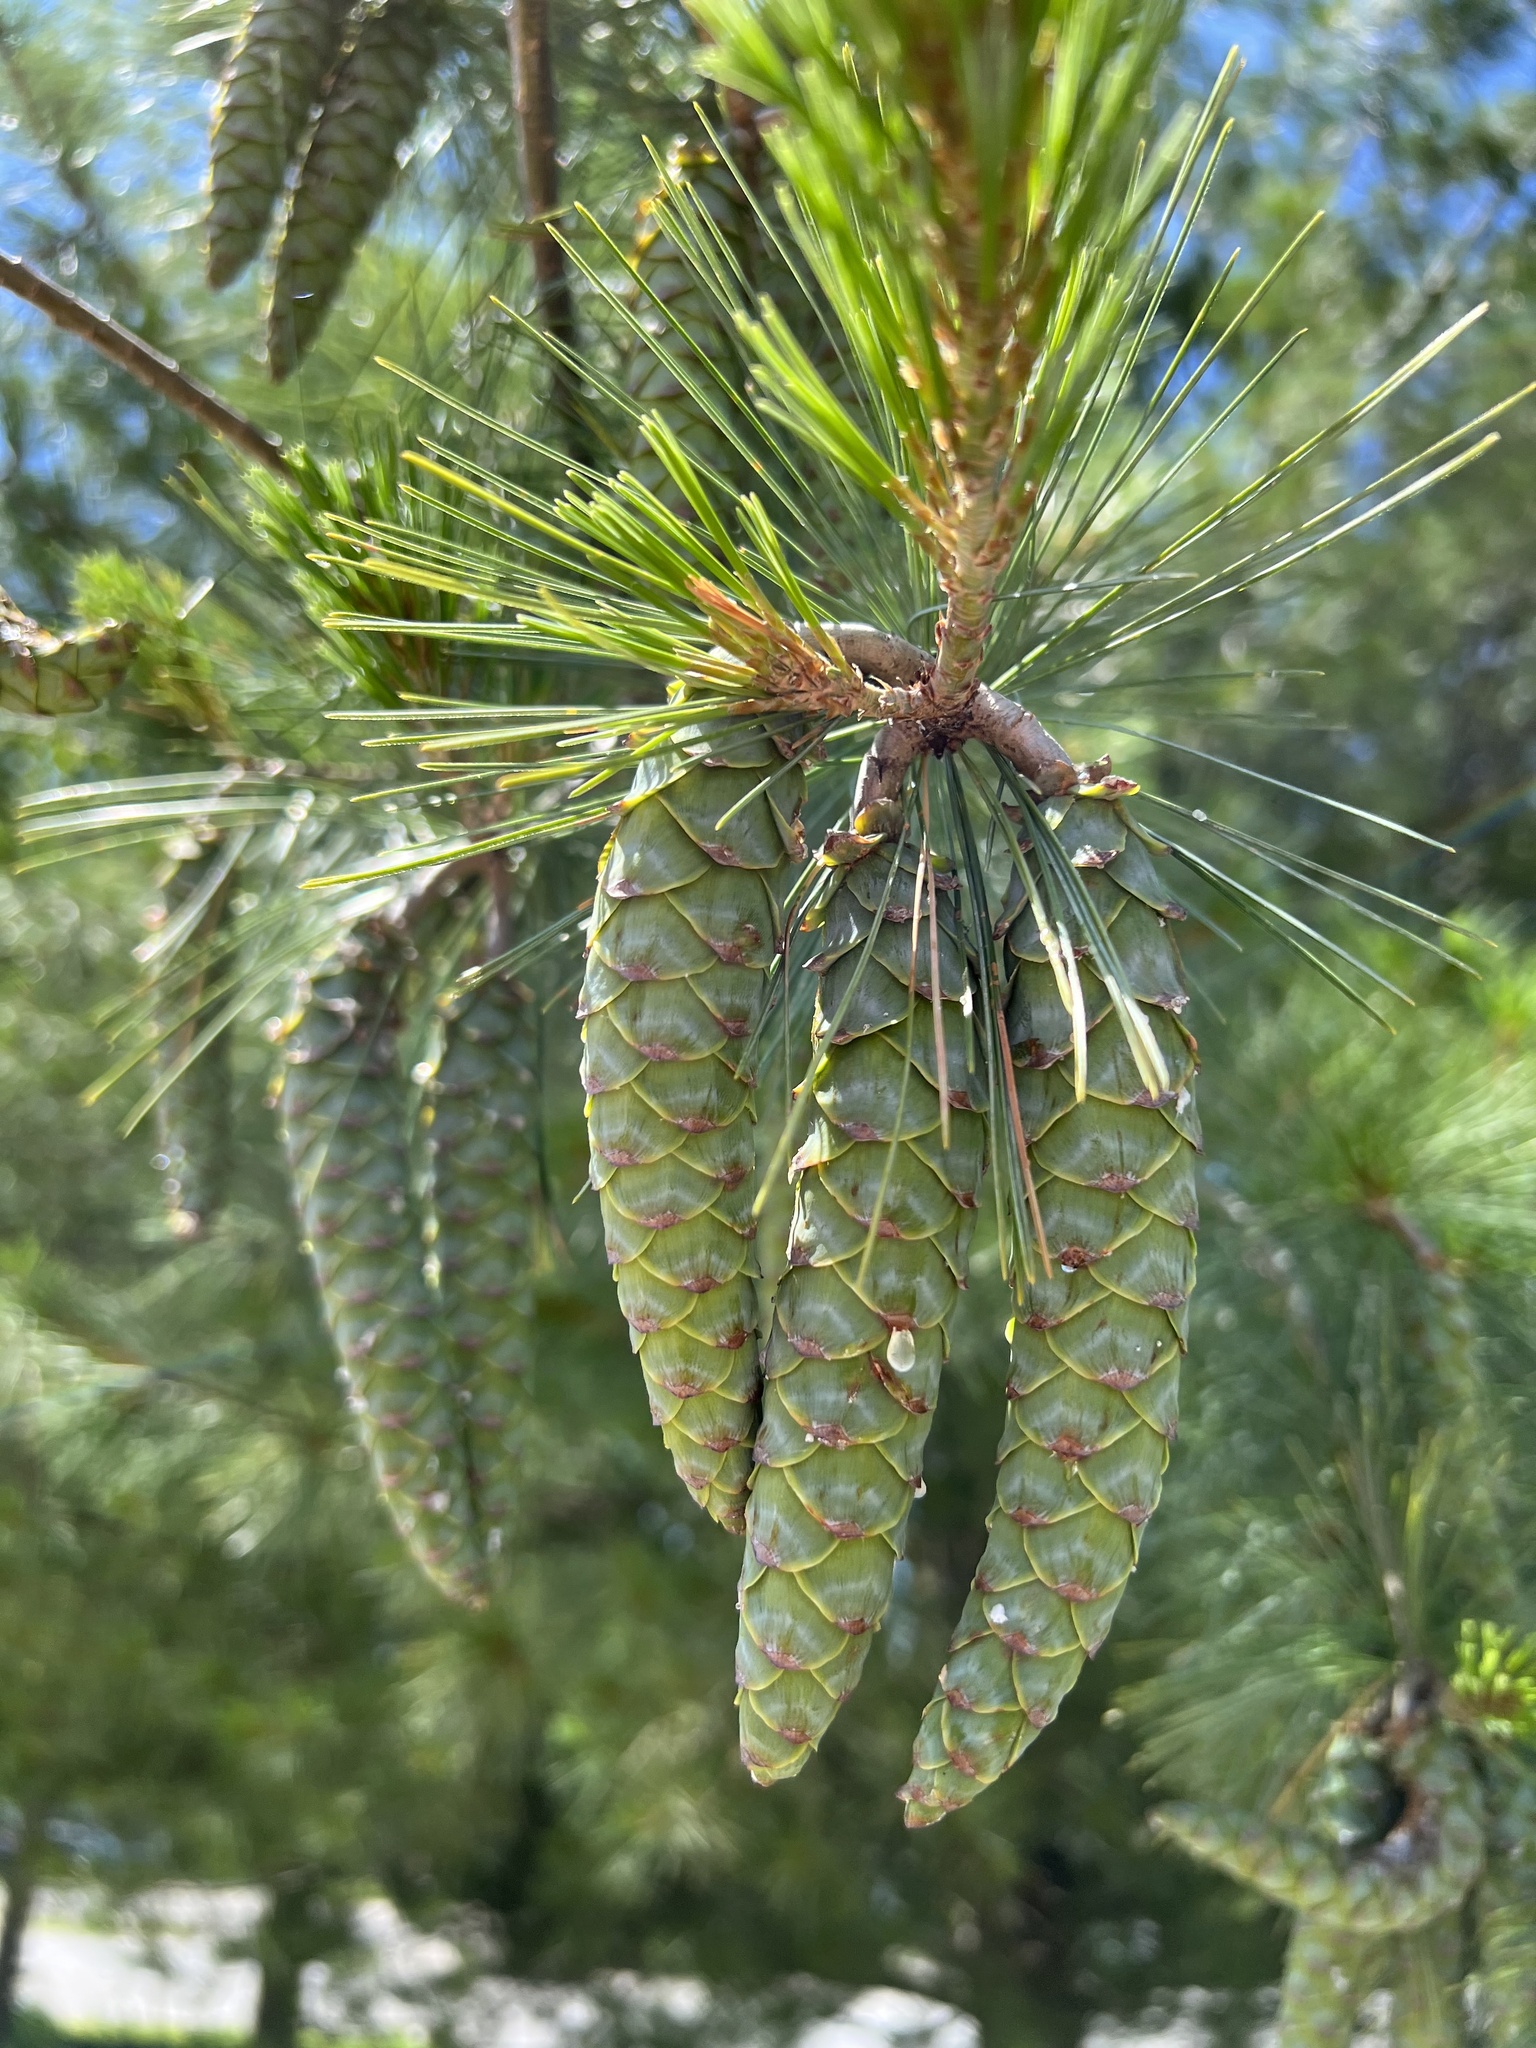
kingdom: Plantae
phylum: Tracheophyta
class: Pinopsida
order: Pinales
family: Pinaceae
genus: Pinus
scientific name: Pinus strobus
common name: Weymouth pine
